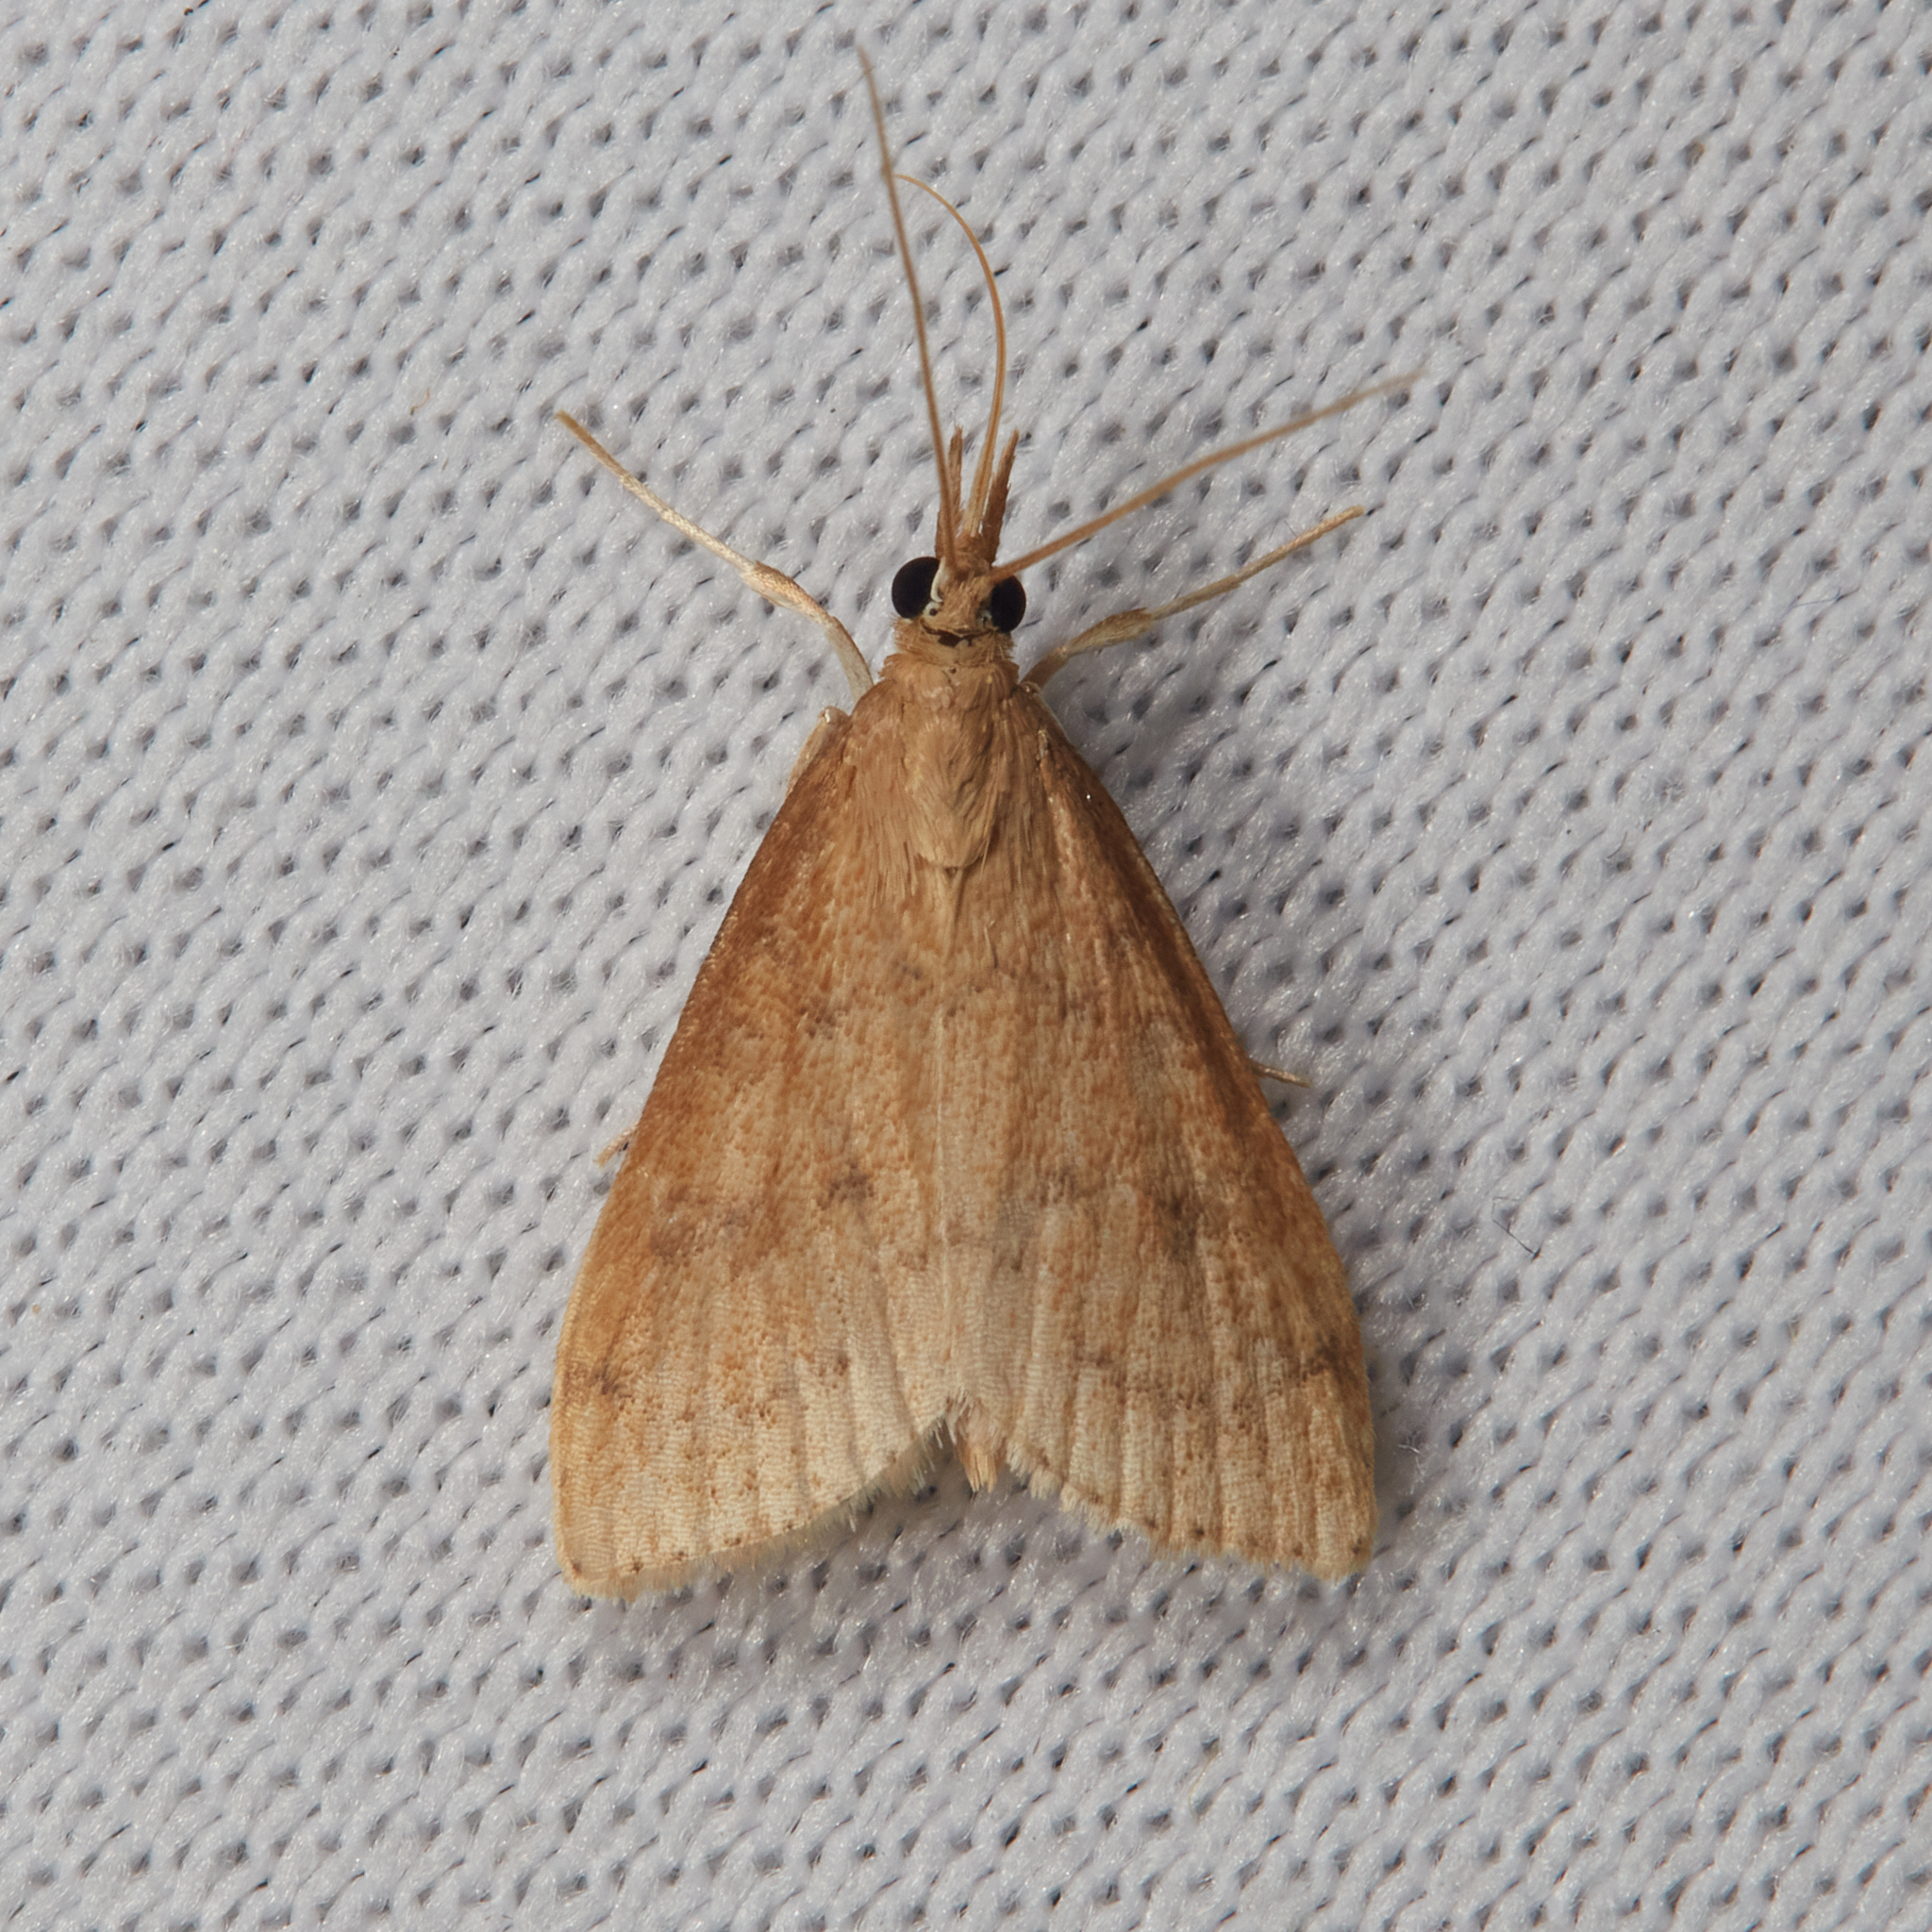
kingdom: Animalia
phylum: Arthropoda
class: Insecta
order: Lepidoptera
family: Crambidae
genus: Udea
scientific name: Udea rubigalis
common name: Celery leaftier moth
